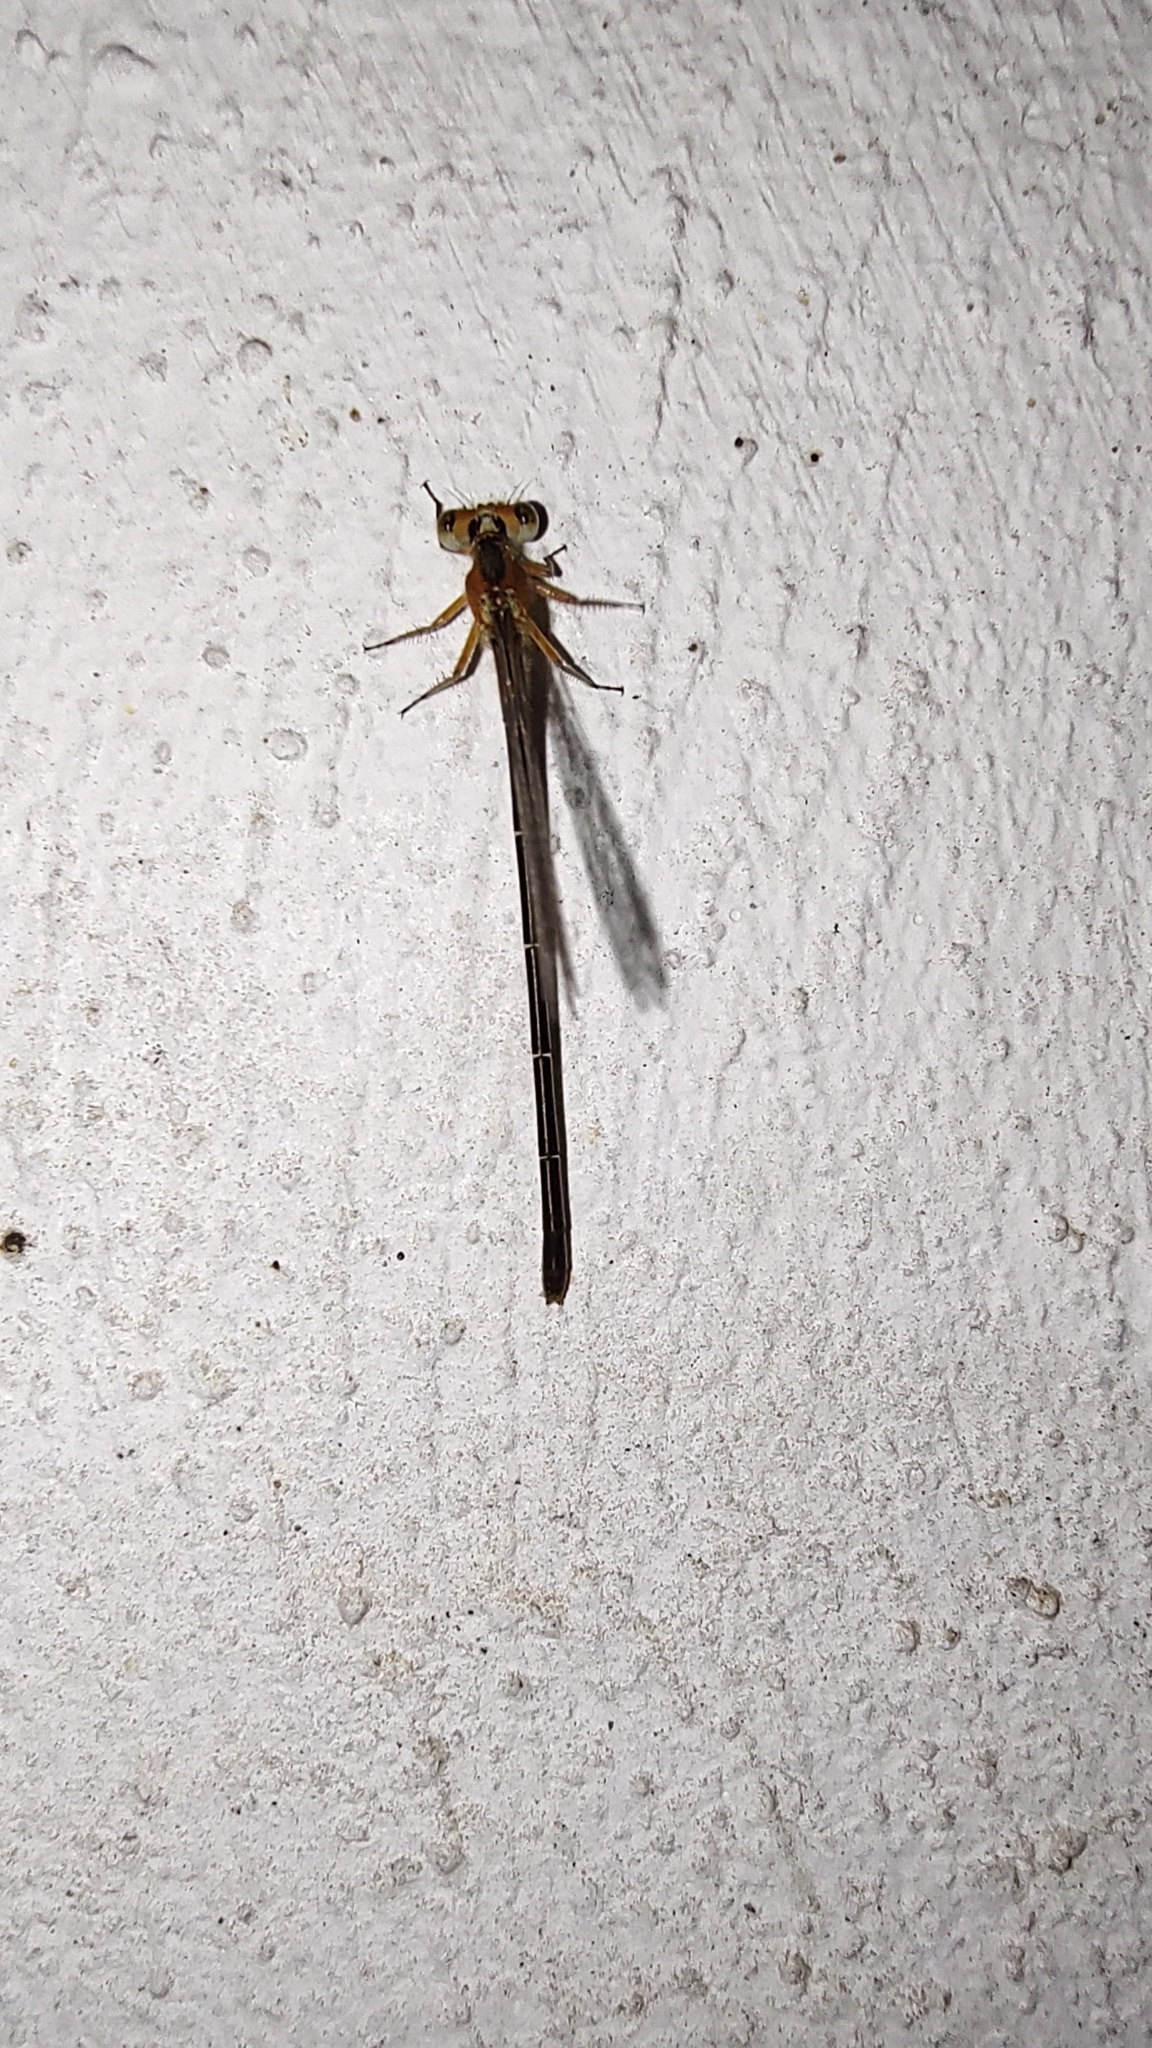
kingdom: Animalia
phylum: Arthropoda
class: Insecta
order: Odonata
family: Coenagrionidae
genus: Ischnura
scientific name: Ischnura ramburii
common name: Rambur's forktail
